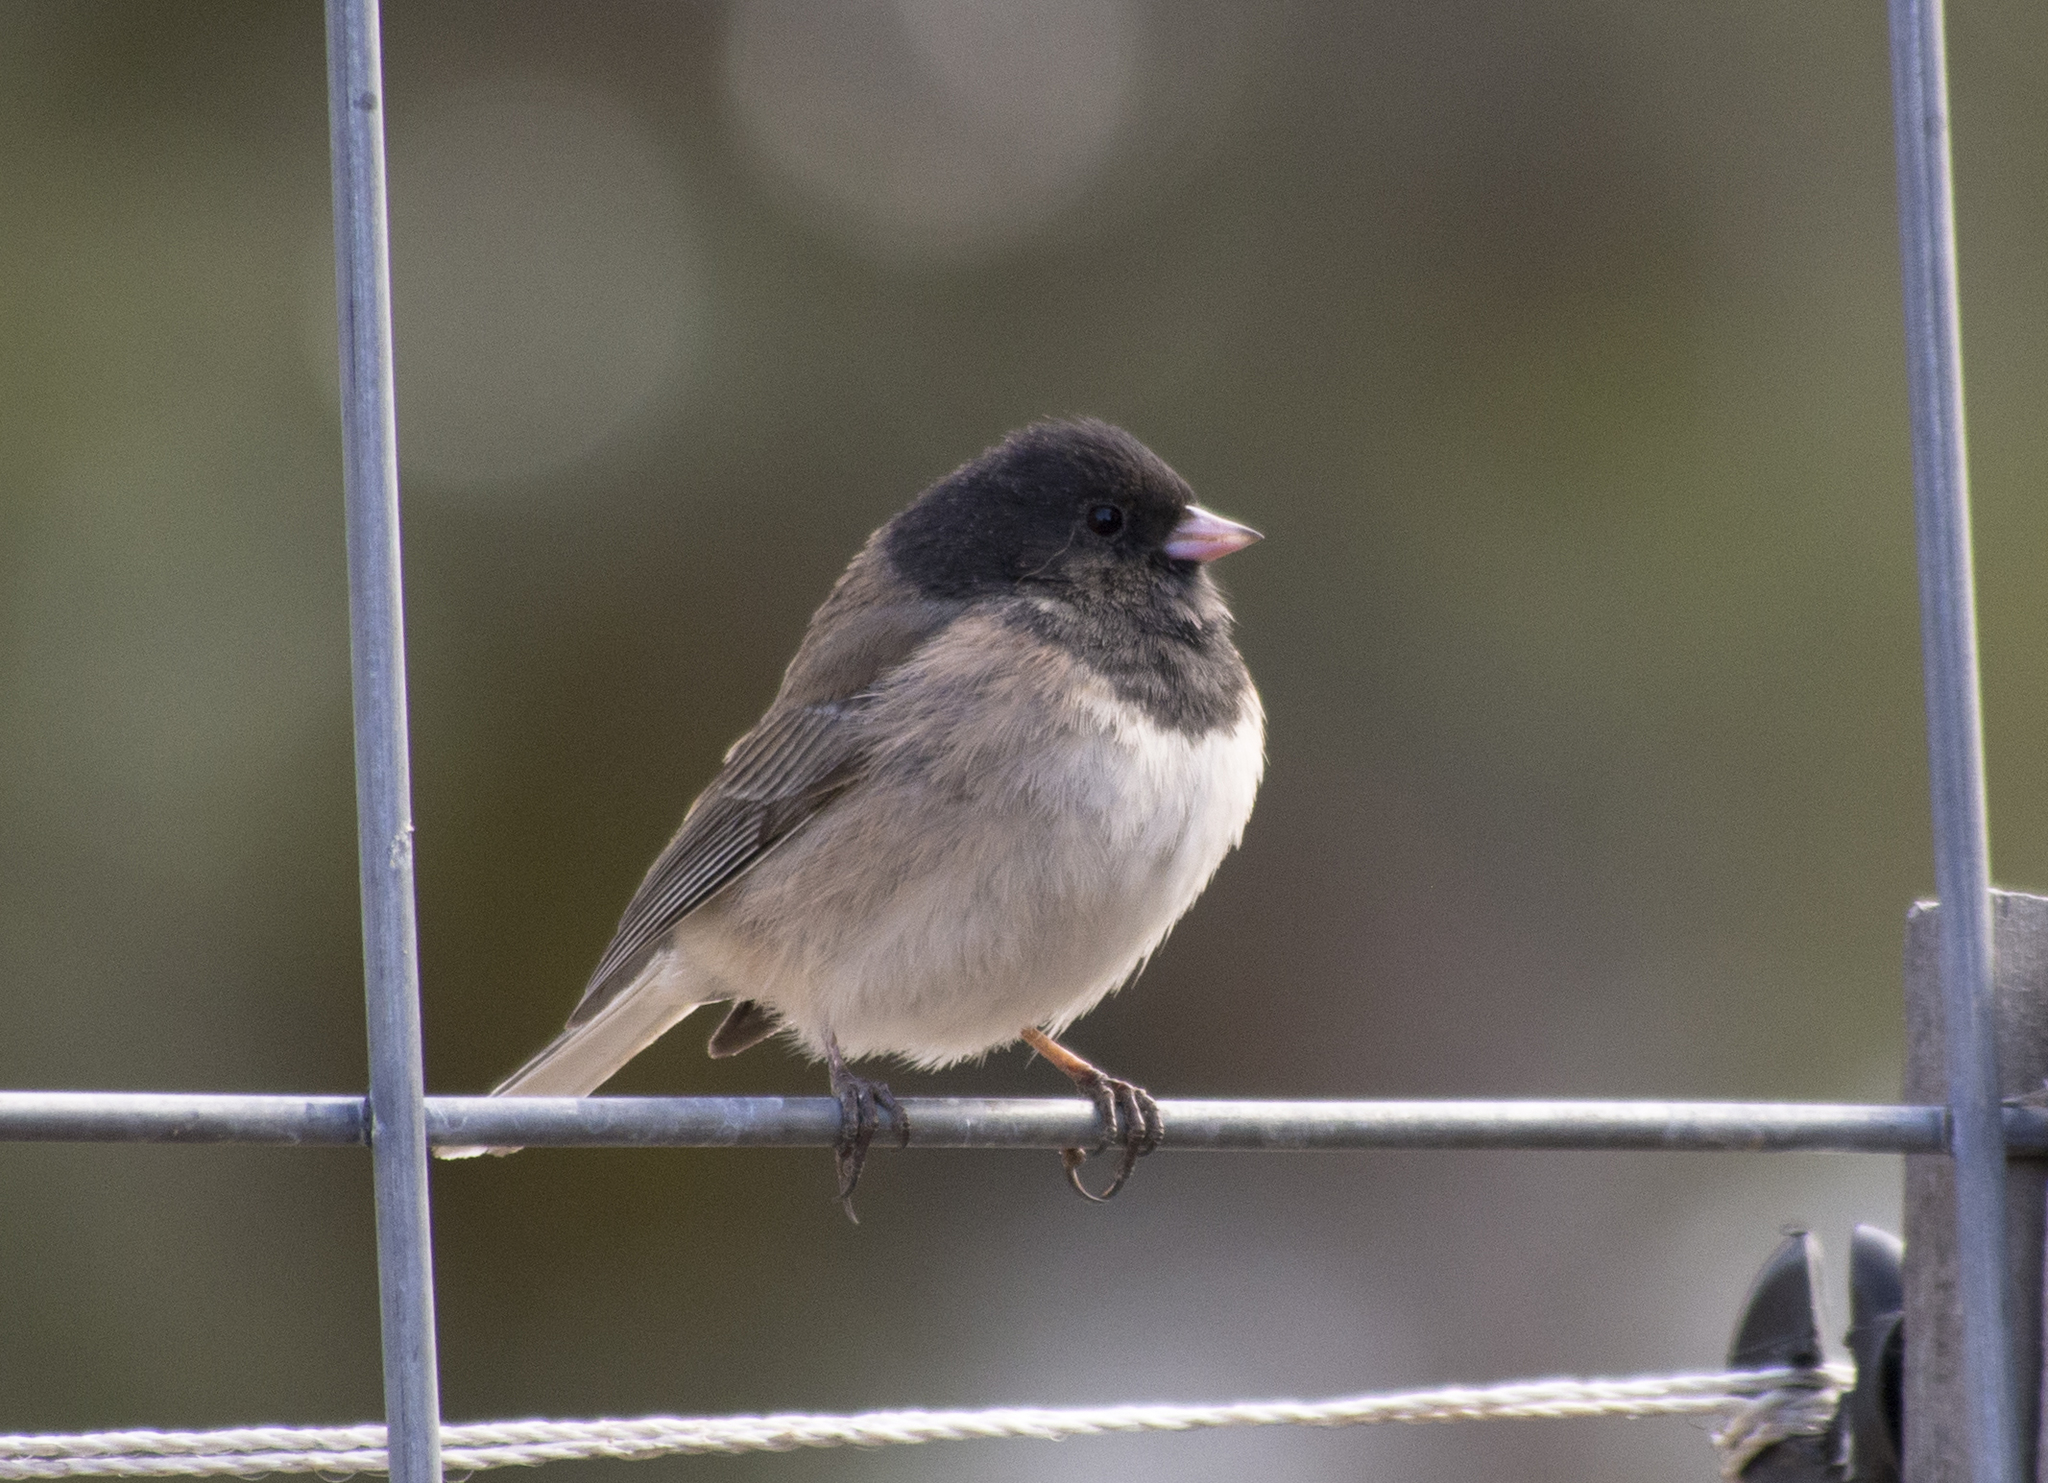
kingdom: Animalia
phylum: Chordata
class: Aves
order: Passeriformes
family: Passerellidae
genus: Junco
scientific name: Junco hyemalis
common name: Dark-eyed junco
